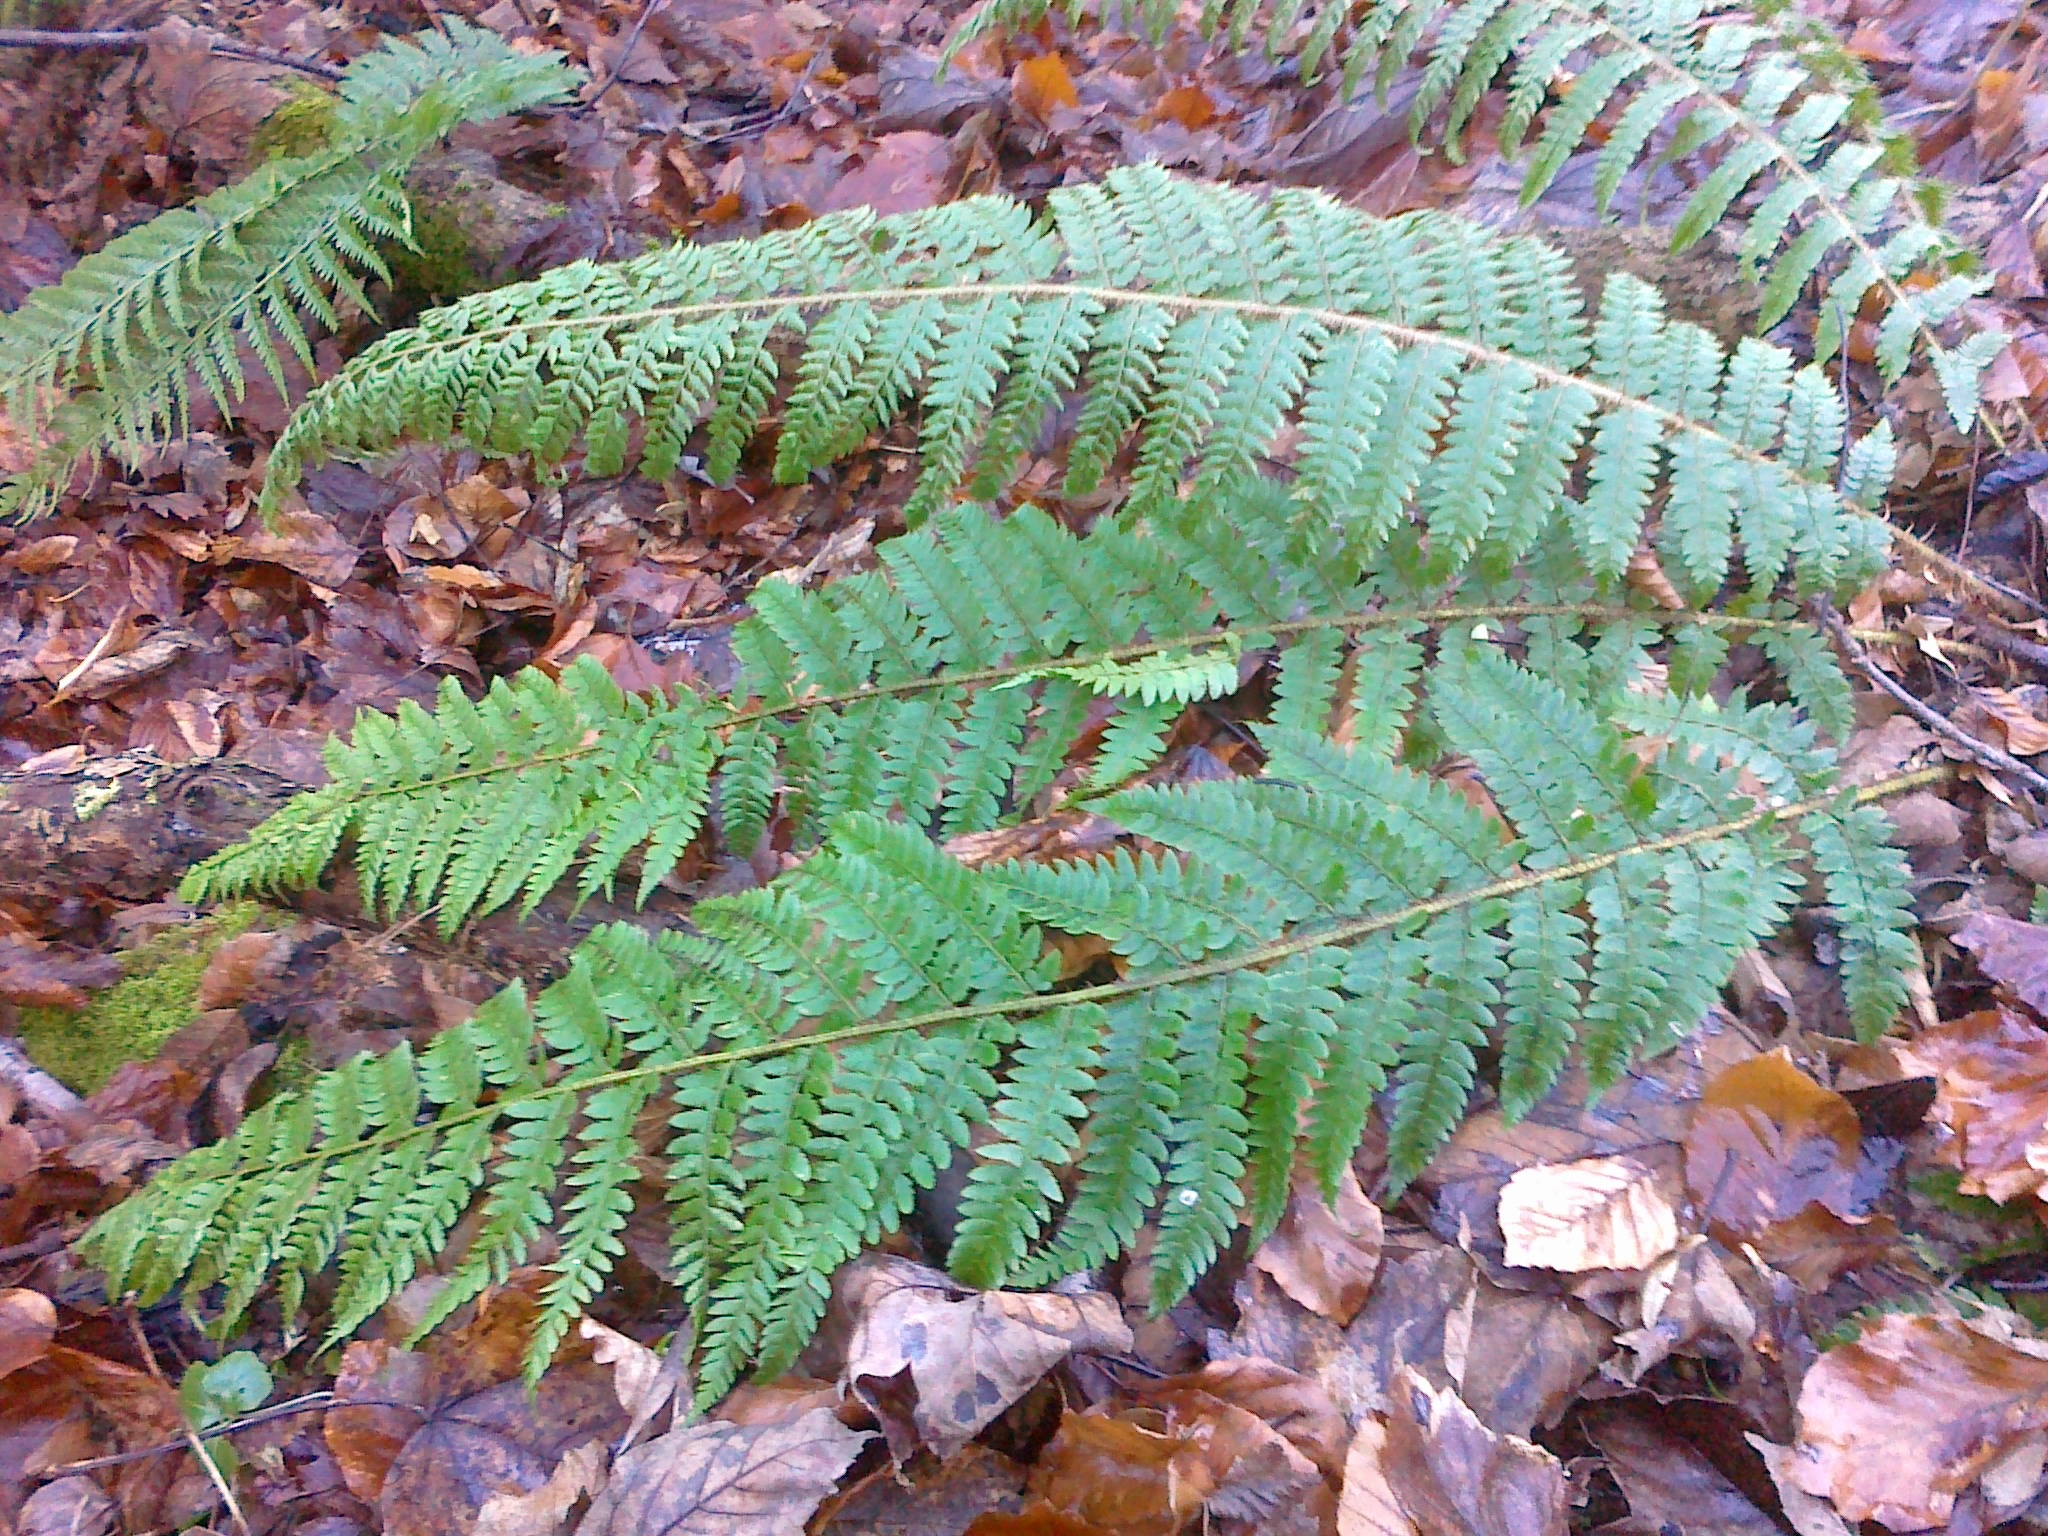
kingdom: Plantae
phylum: Tracheophyta
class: Polypodiopsida
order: Polypodiales
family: Dryopteridaceae
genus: Polystichum
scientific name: Polystichum wirtgenii
